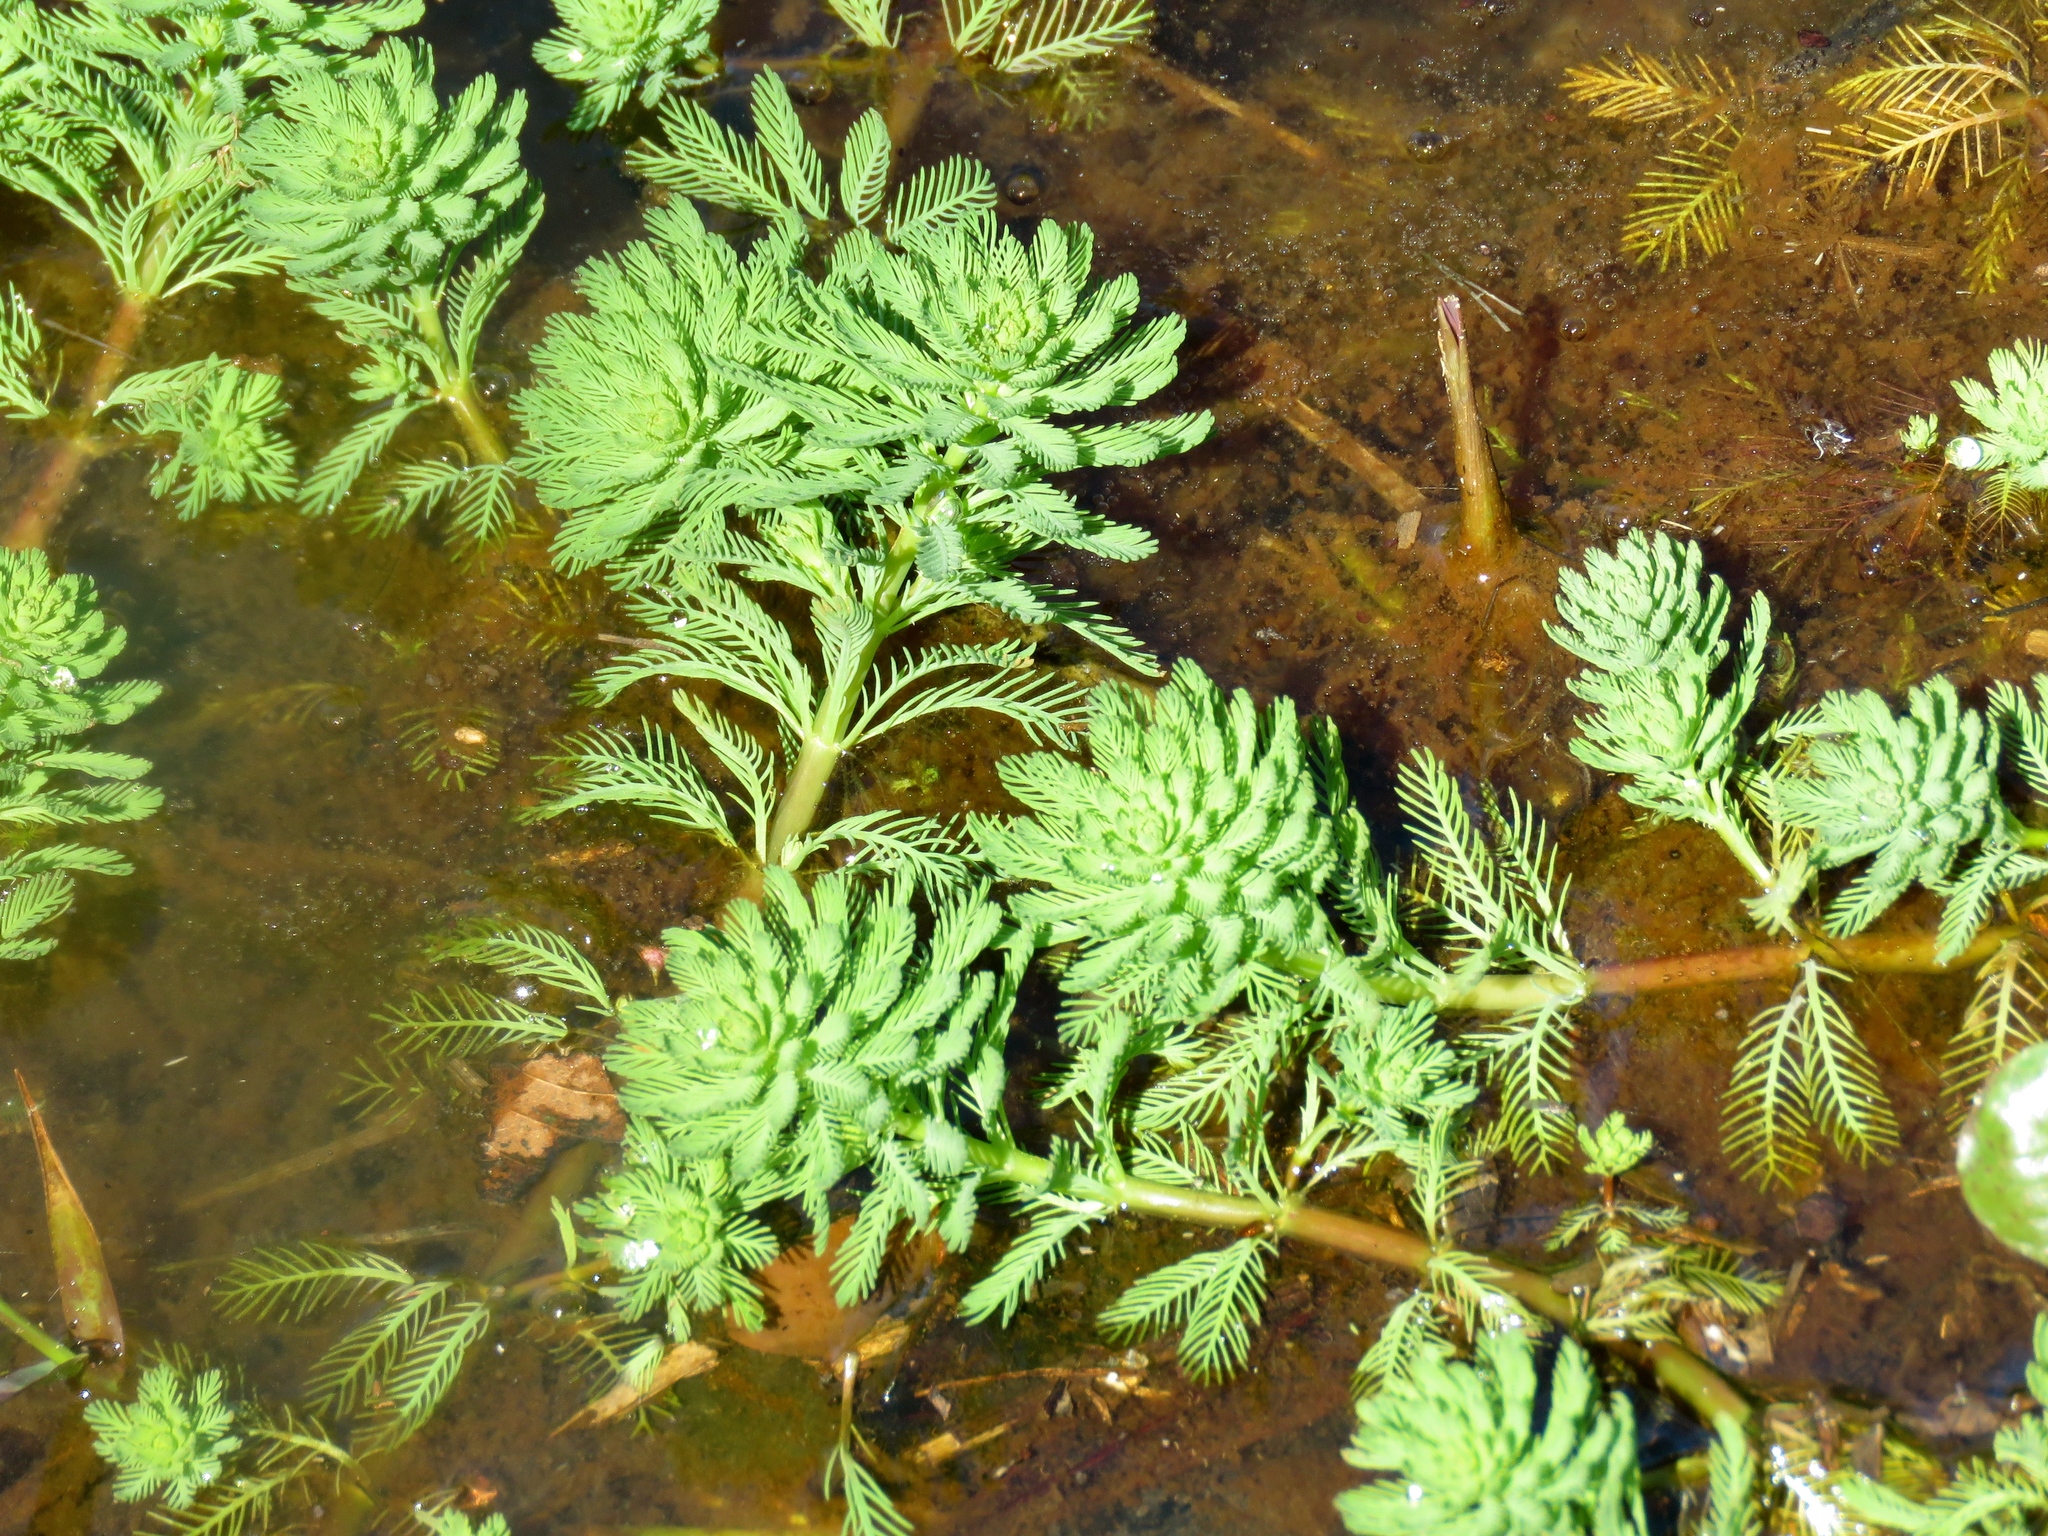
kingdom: Plantae
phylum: Tracheophyta
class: Magnoliopsida
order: Saxifragales
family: Haloragaceae
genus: Myriophyllum
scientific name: Myriophyllum aquaticum
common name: Parrot's feather
